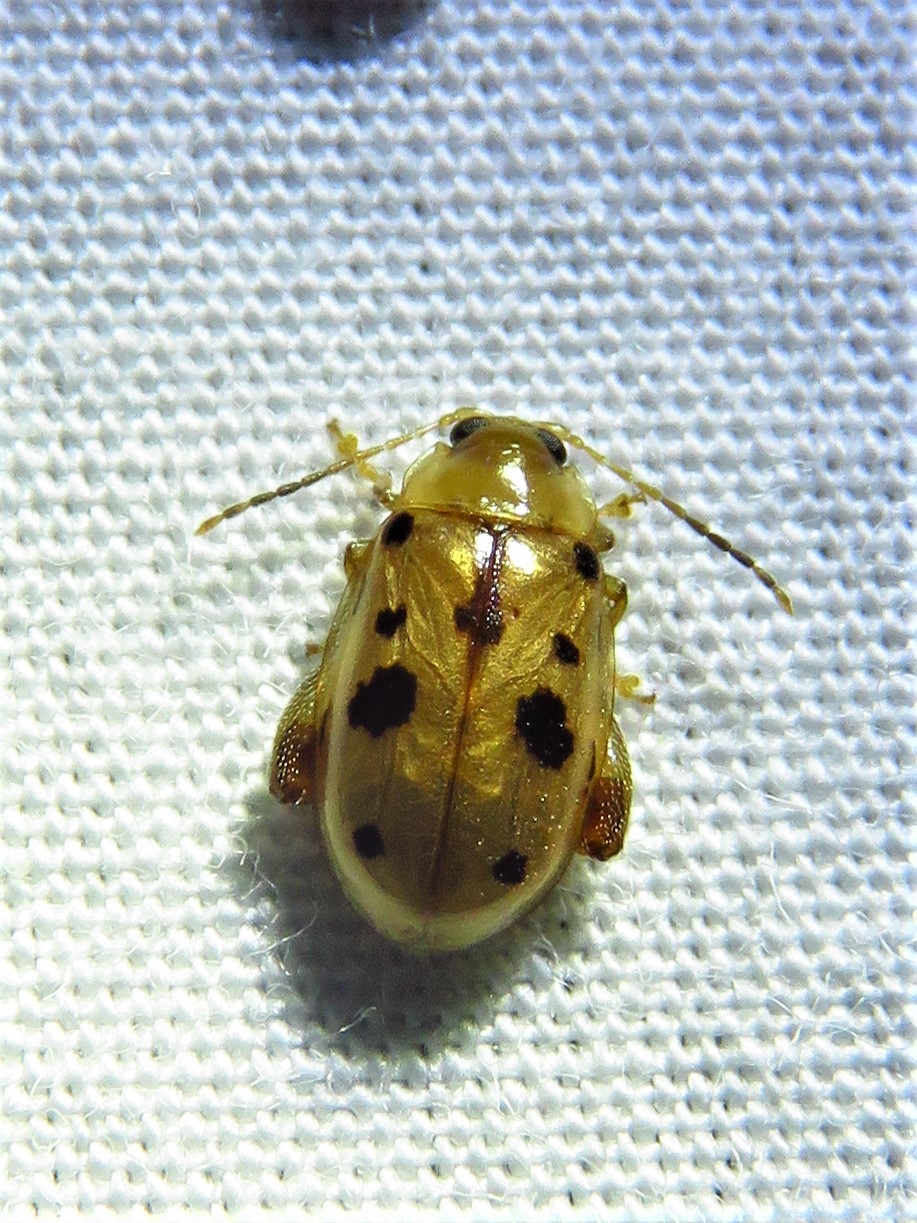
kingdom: Animalia
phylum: Arthropoda
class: Insecta
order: Coleoptera
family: Chrysomelidae
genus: Capraita
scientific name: Capraita nigrosignata
